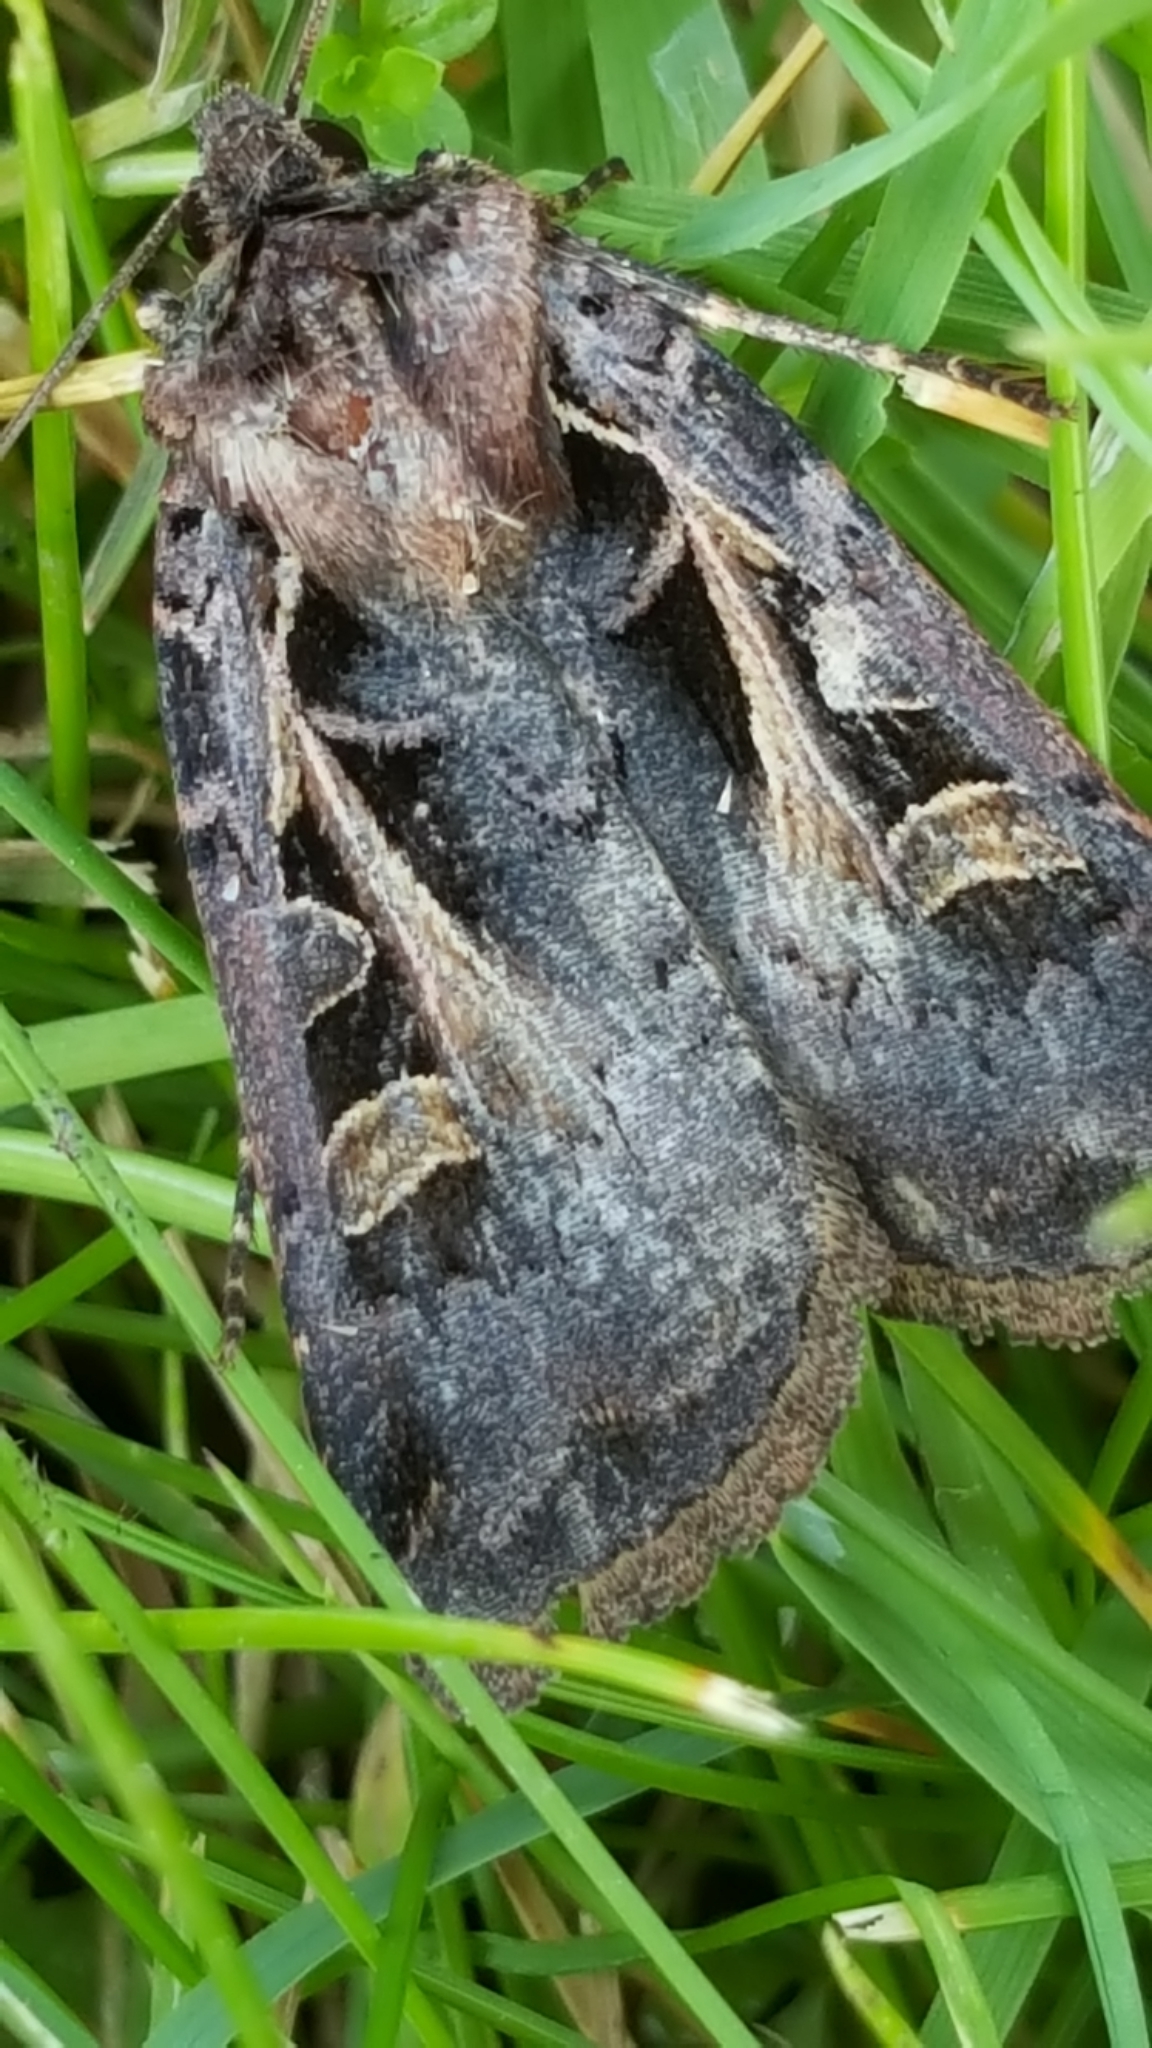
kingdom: Animalia
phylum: Arthropoda
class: Insecta
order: Lepidoptera
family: Noctuidae
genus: Feltia
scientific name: Feltia herilis
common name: Master's dart
